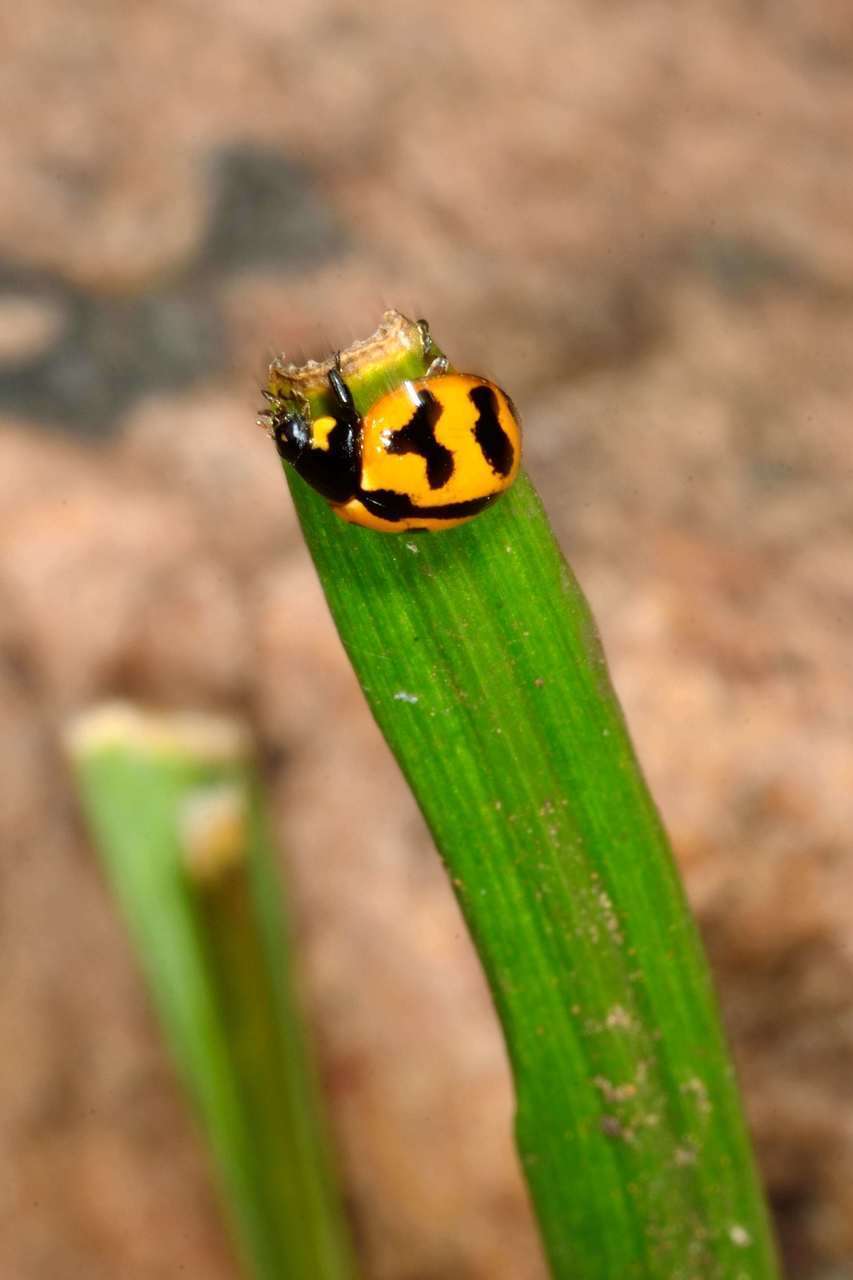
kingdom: Animalia
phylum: Arthropoda
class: Insecta
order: Coleoptera
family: Coccinellidae
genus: Coccinella
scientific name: Coccinella transversalis
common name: Transverse lady beetle
